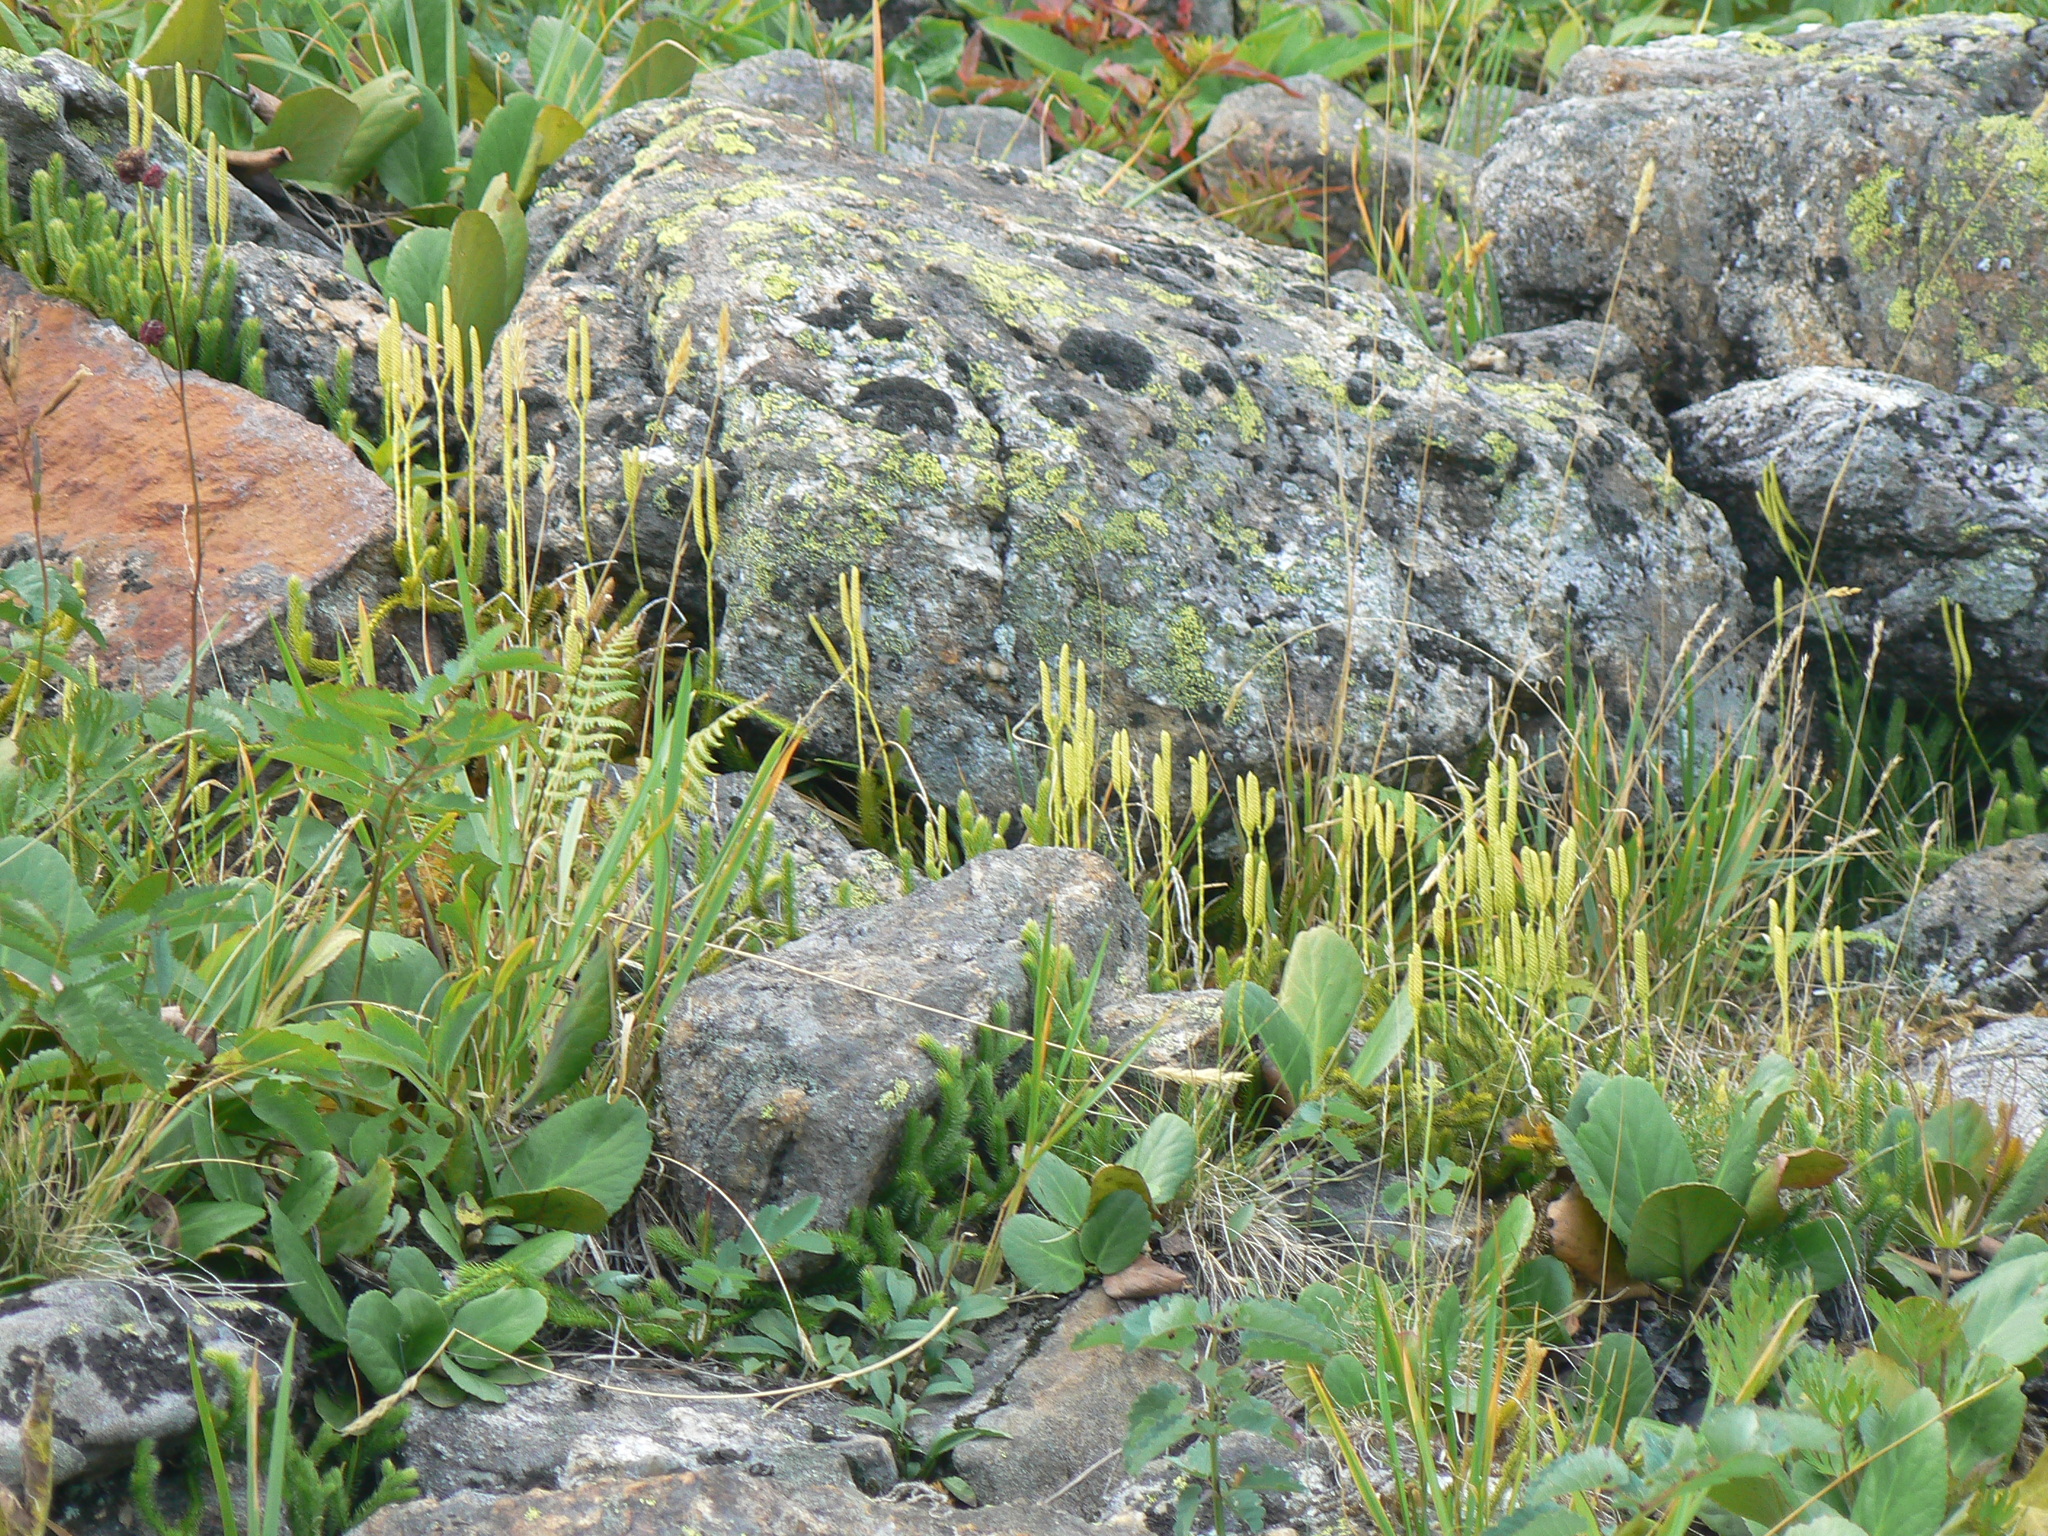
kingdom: Plantae
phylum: Tracheophyta
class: Lycopodiopsida
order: Lycopodiales
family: Lycopodiaceae
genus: Lycopodium
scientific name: Lycopodium clavatum
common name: Stag's-horn clubmoss
